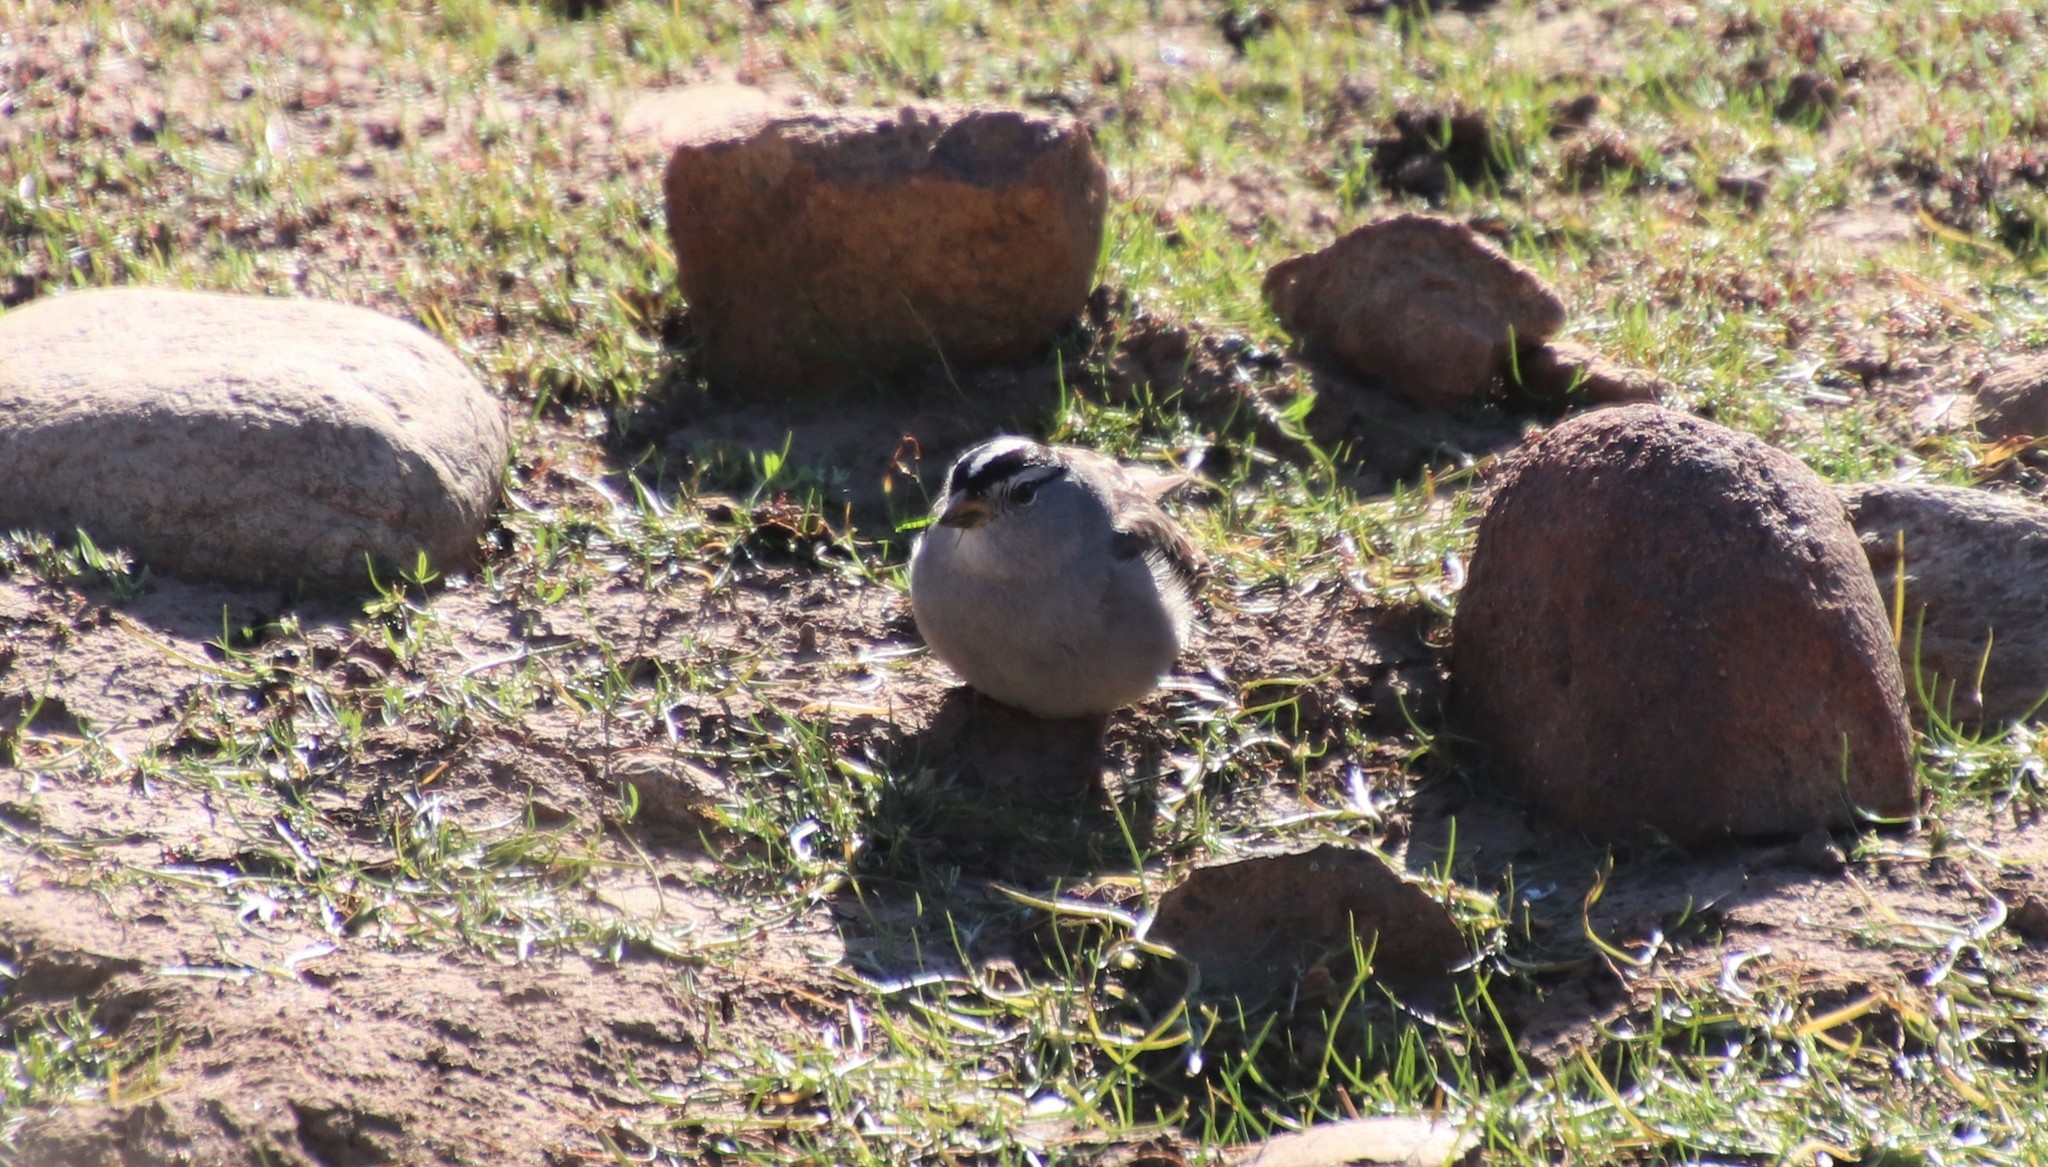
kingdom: Animalia
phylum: Chordata
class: Aves
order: Passeriformes
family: Passerellidae
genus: Zonotrichia
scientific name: Zonotrichia leucophrys
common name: White-crowned sparrow
